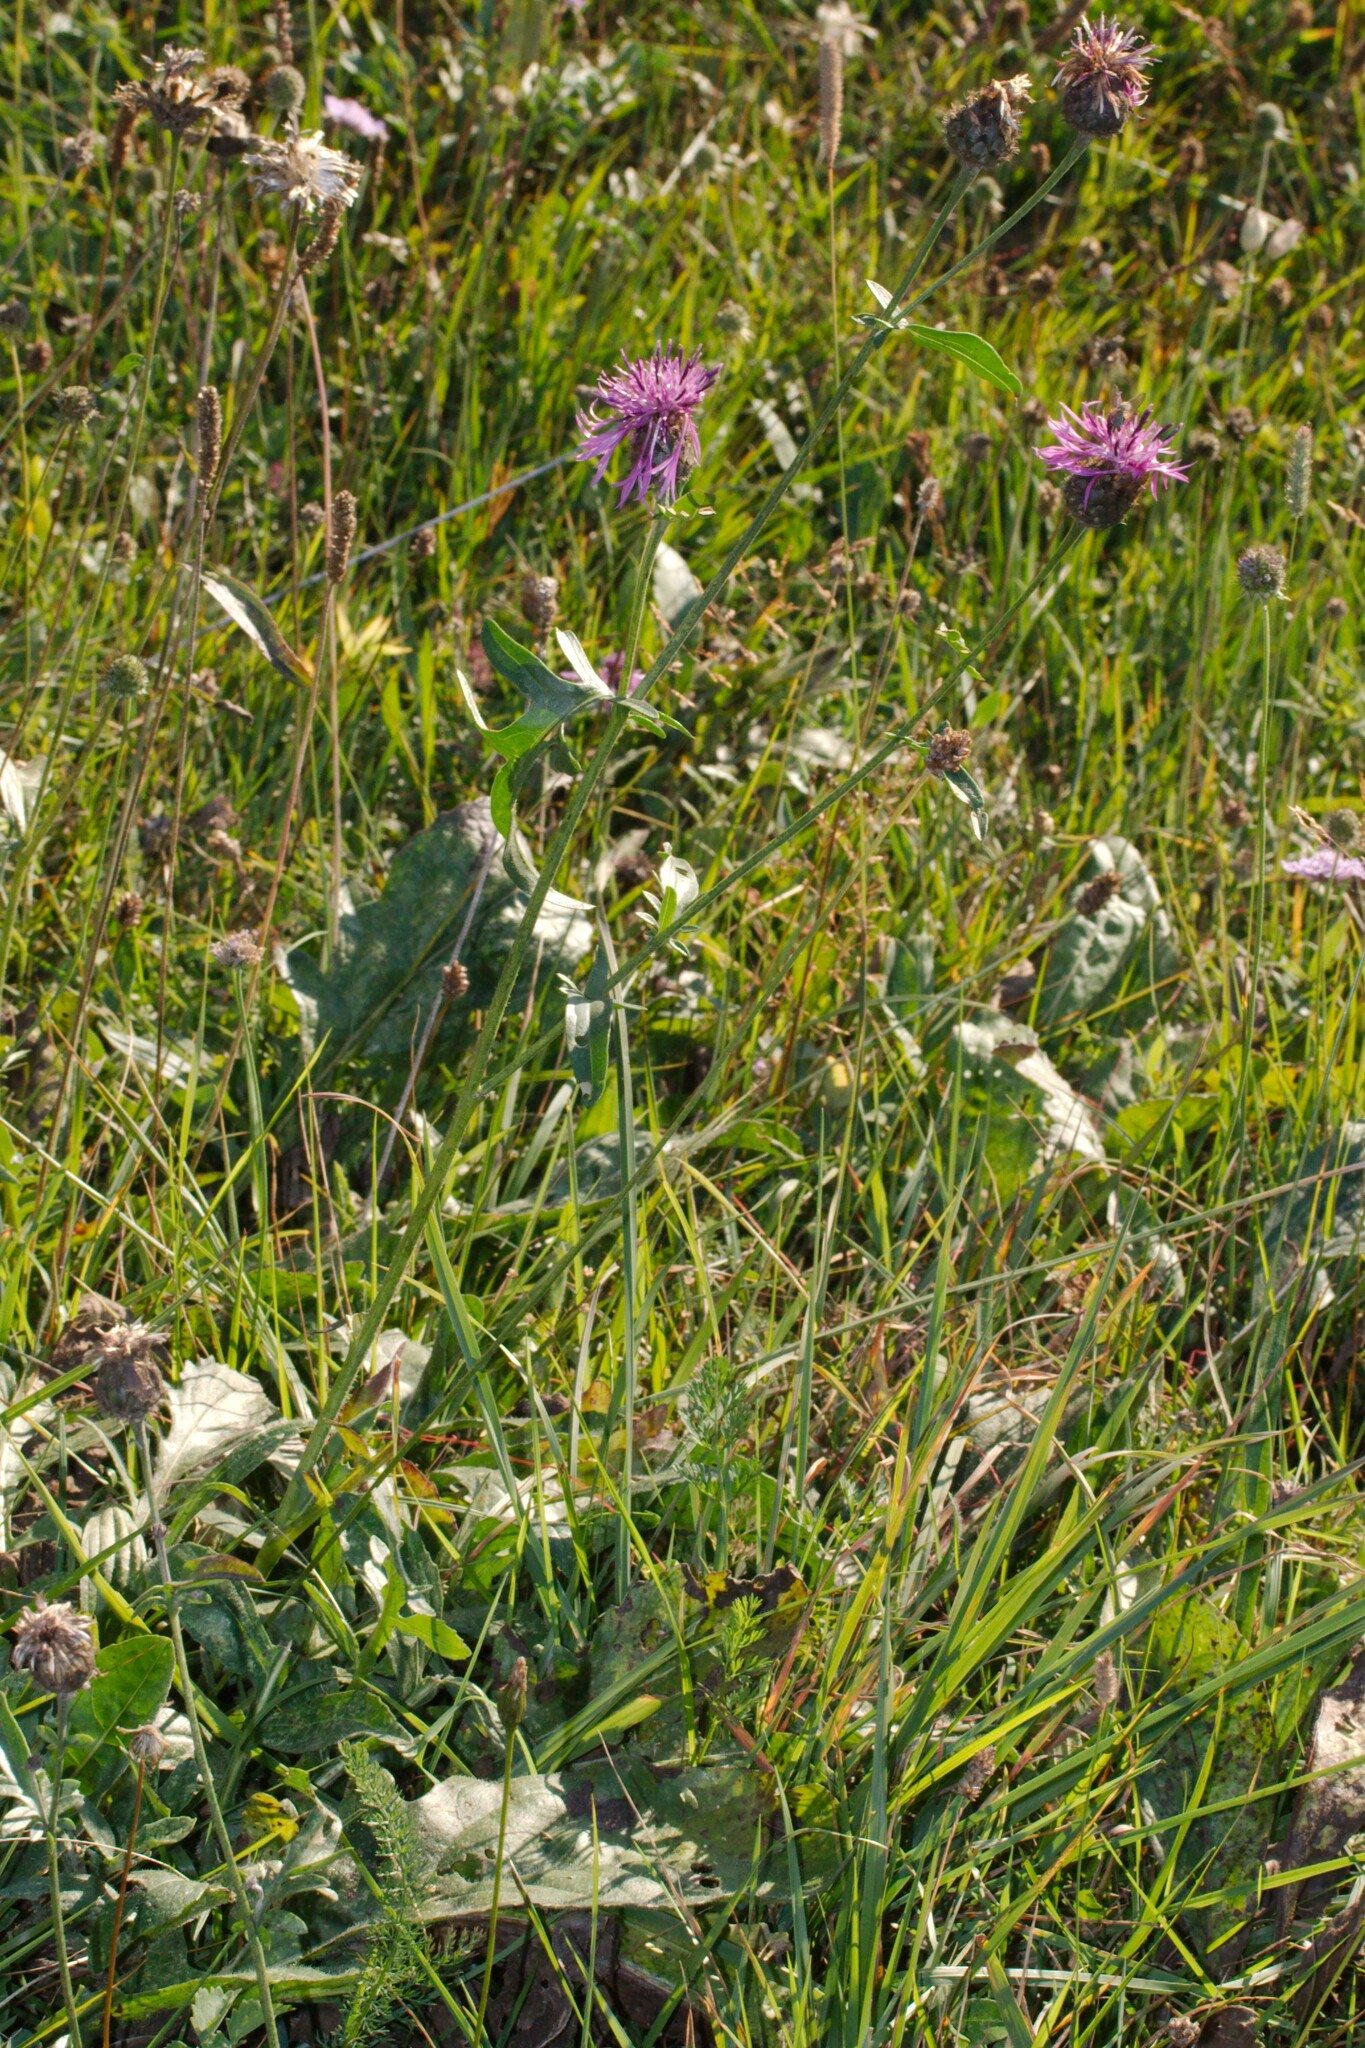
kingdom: Plantae
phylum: Tracheophyta
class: Magnoliopsida
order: Asterales
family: Asteraceae
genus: Centaurea
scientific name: Centaurea scabiosa
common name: Greater knapweed
